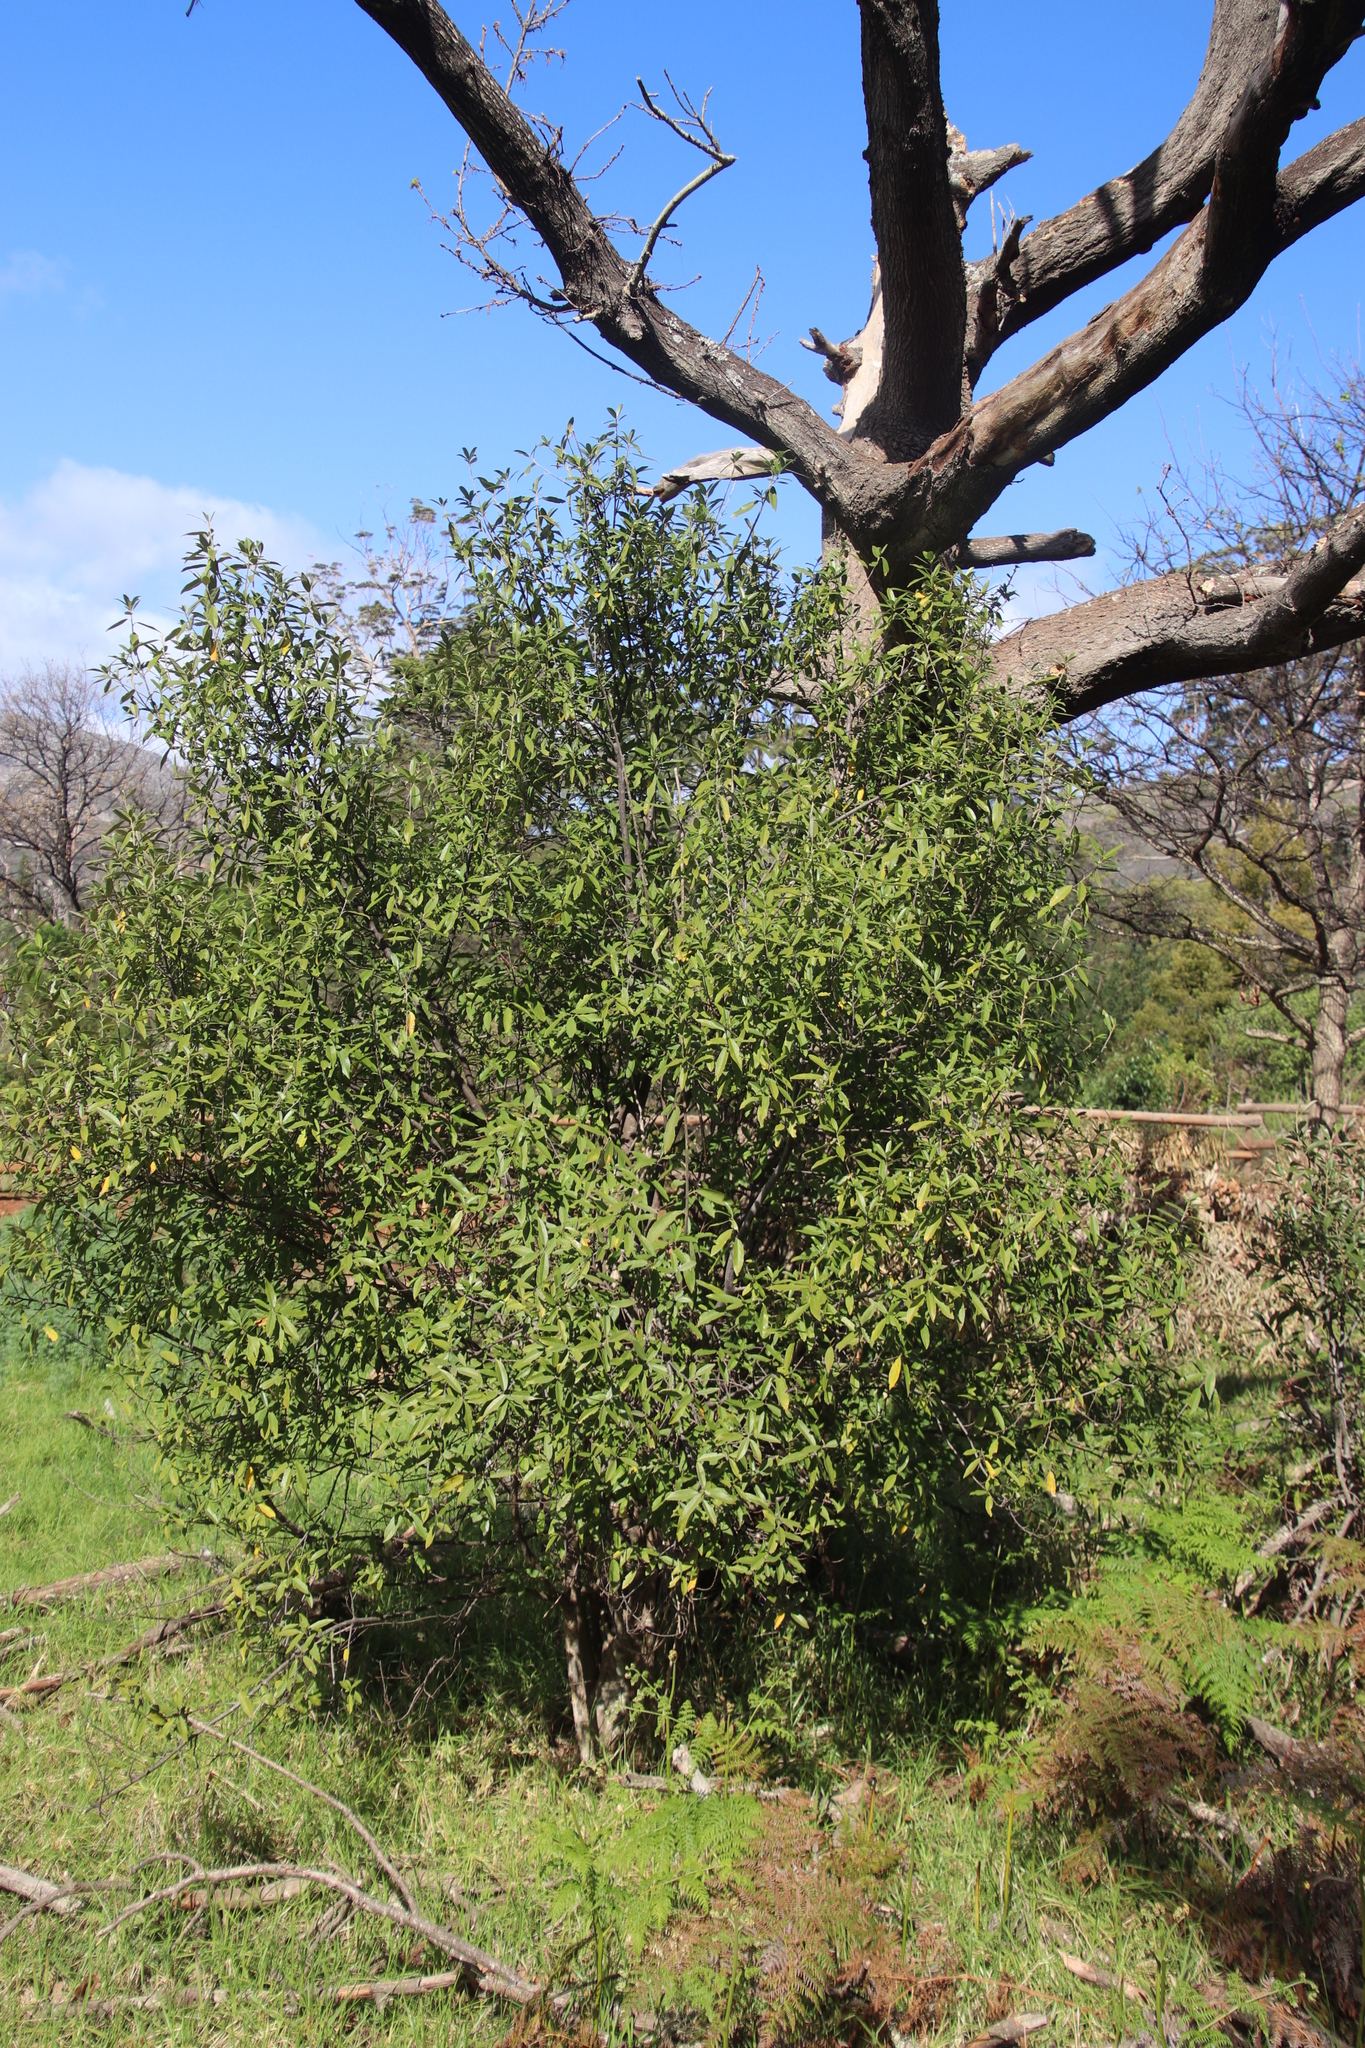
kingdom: Plantae
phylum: Tracheophyta
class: Magnoliopsida
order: Malpighiales
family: Achariaceae
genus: Kiggelaria
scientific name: Kiggelaria africana
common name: Wild peach
